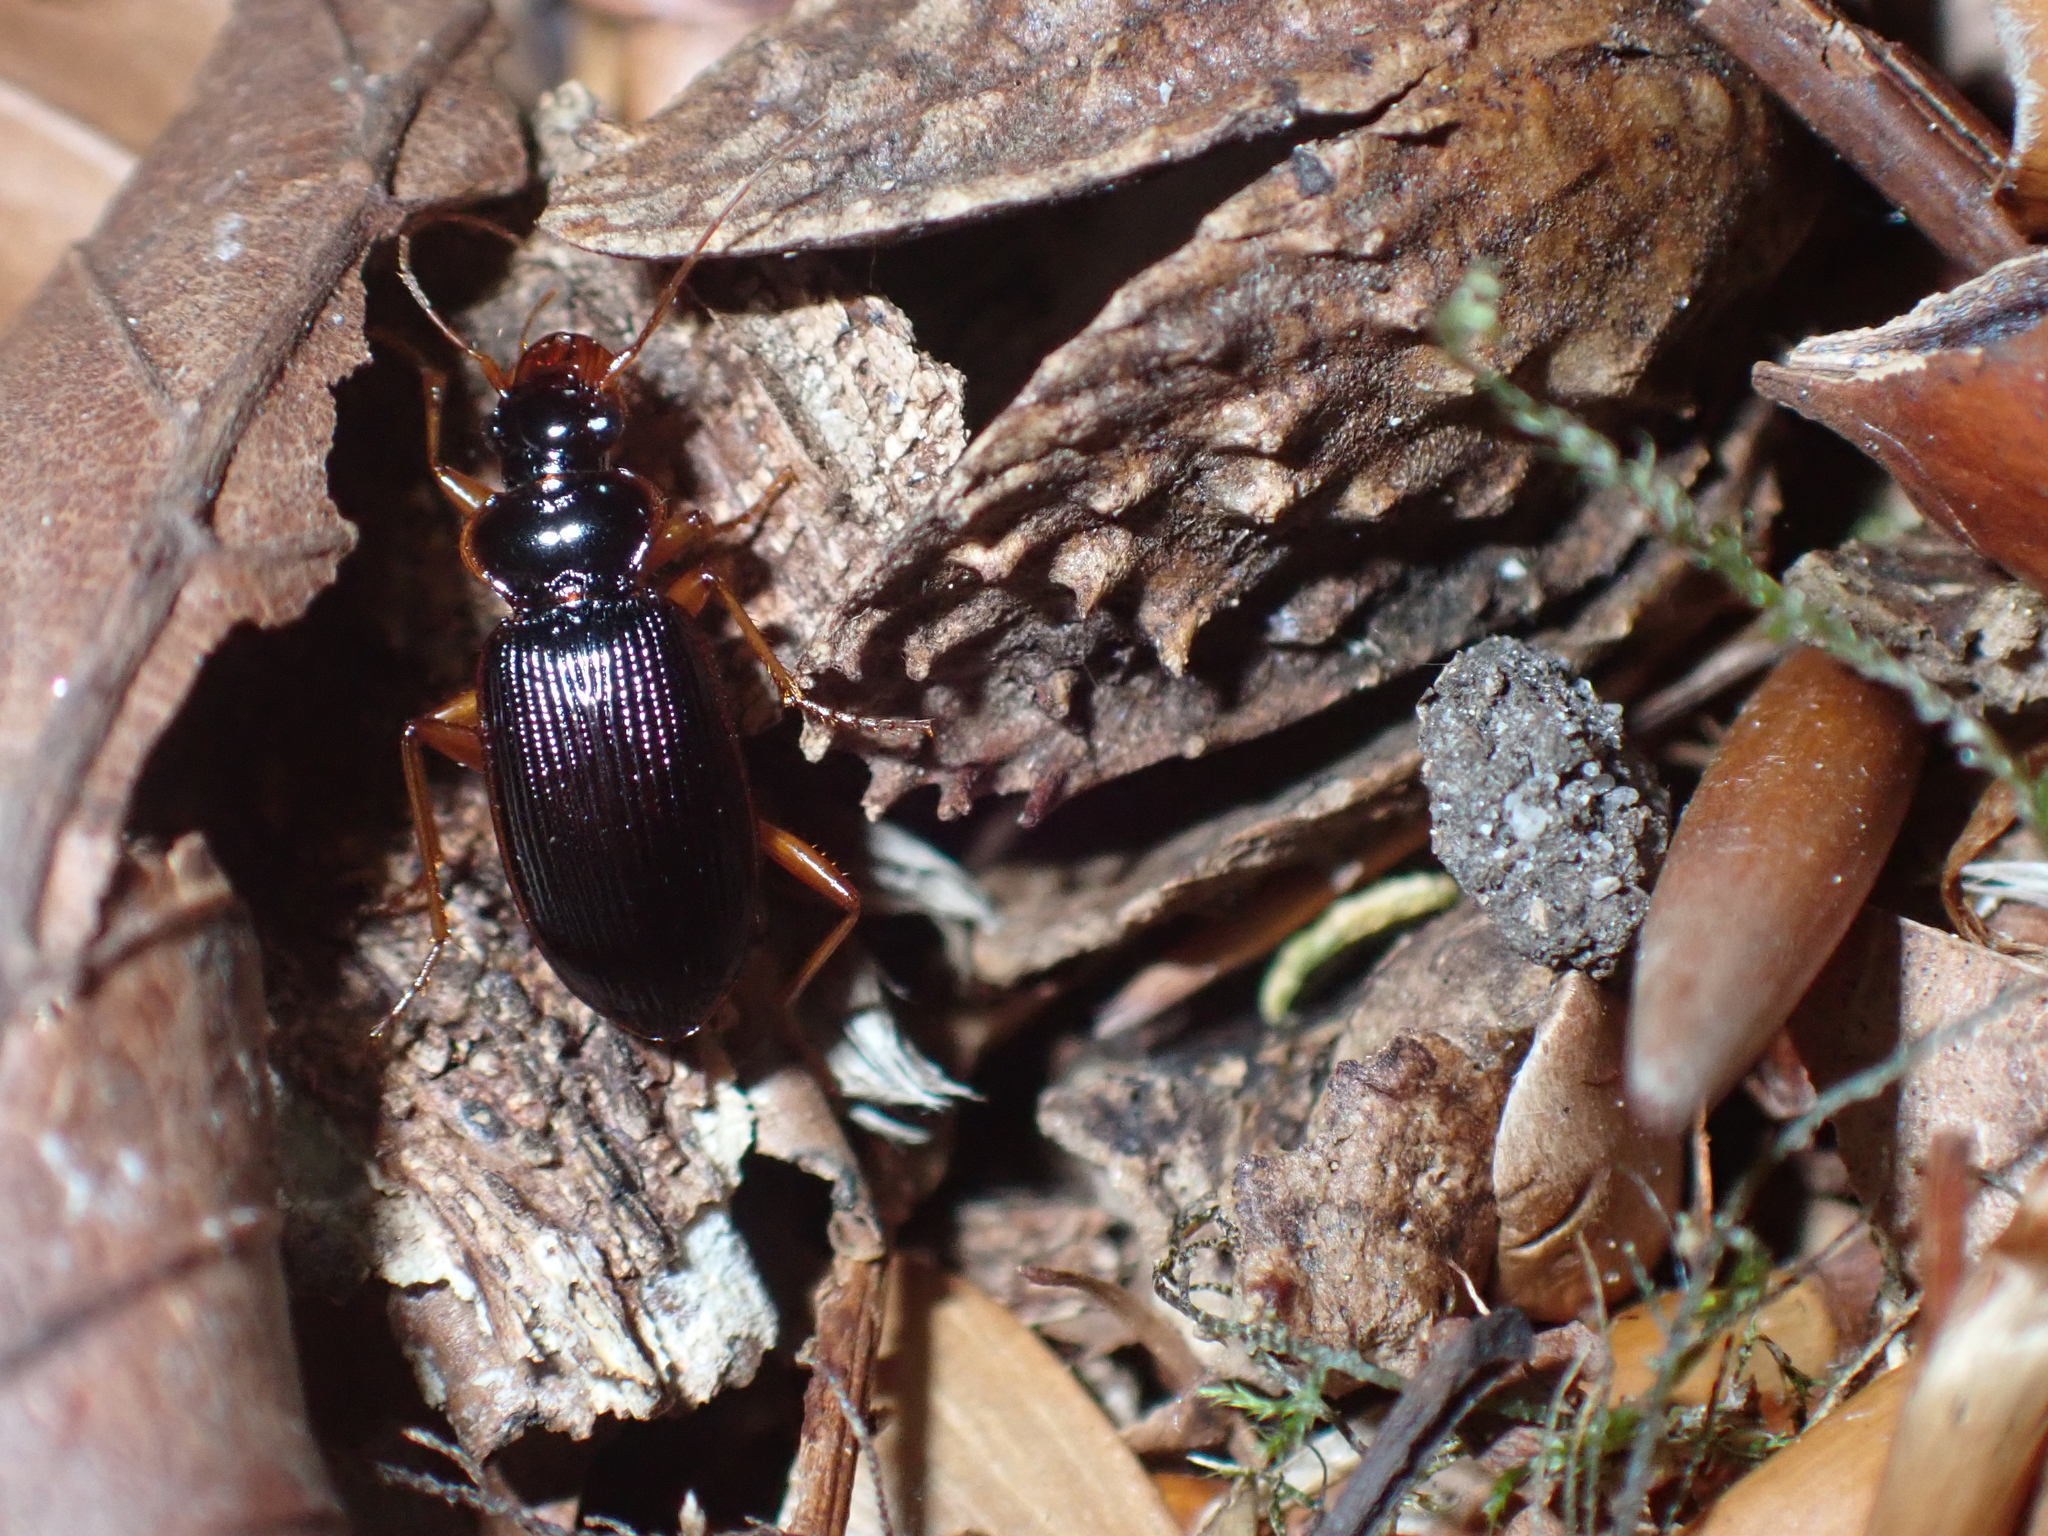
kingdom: Animalia
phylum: Arthropoda
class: Insecta
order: Coleoptera
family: Carabidae
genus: Leistus
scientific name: Leistus rufomarginatus
